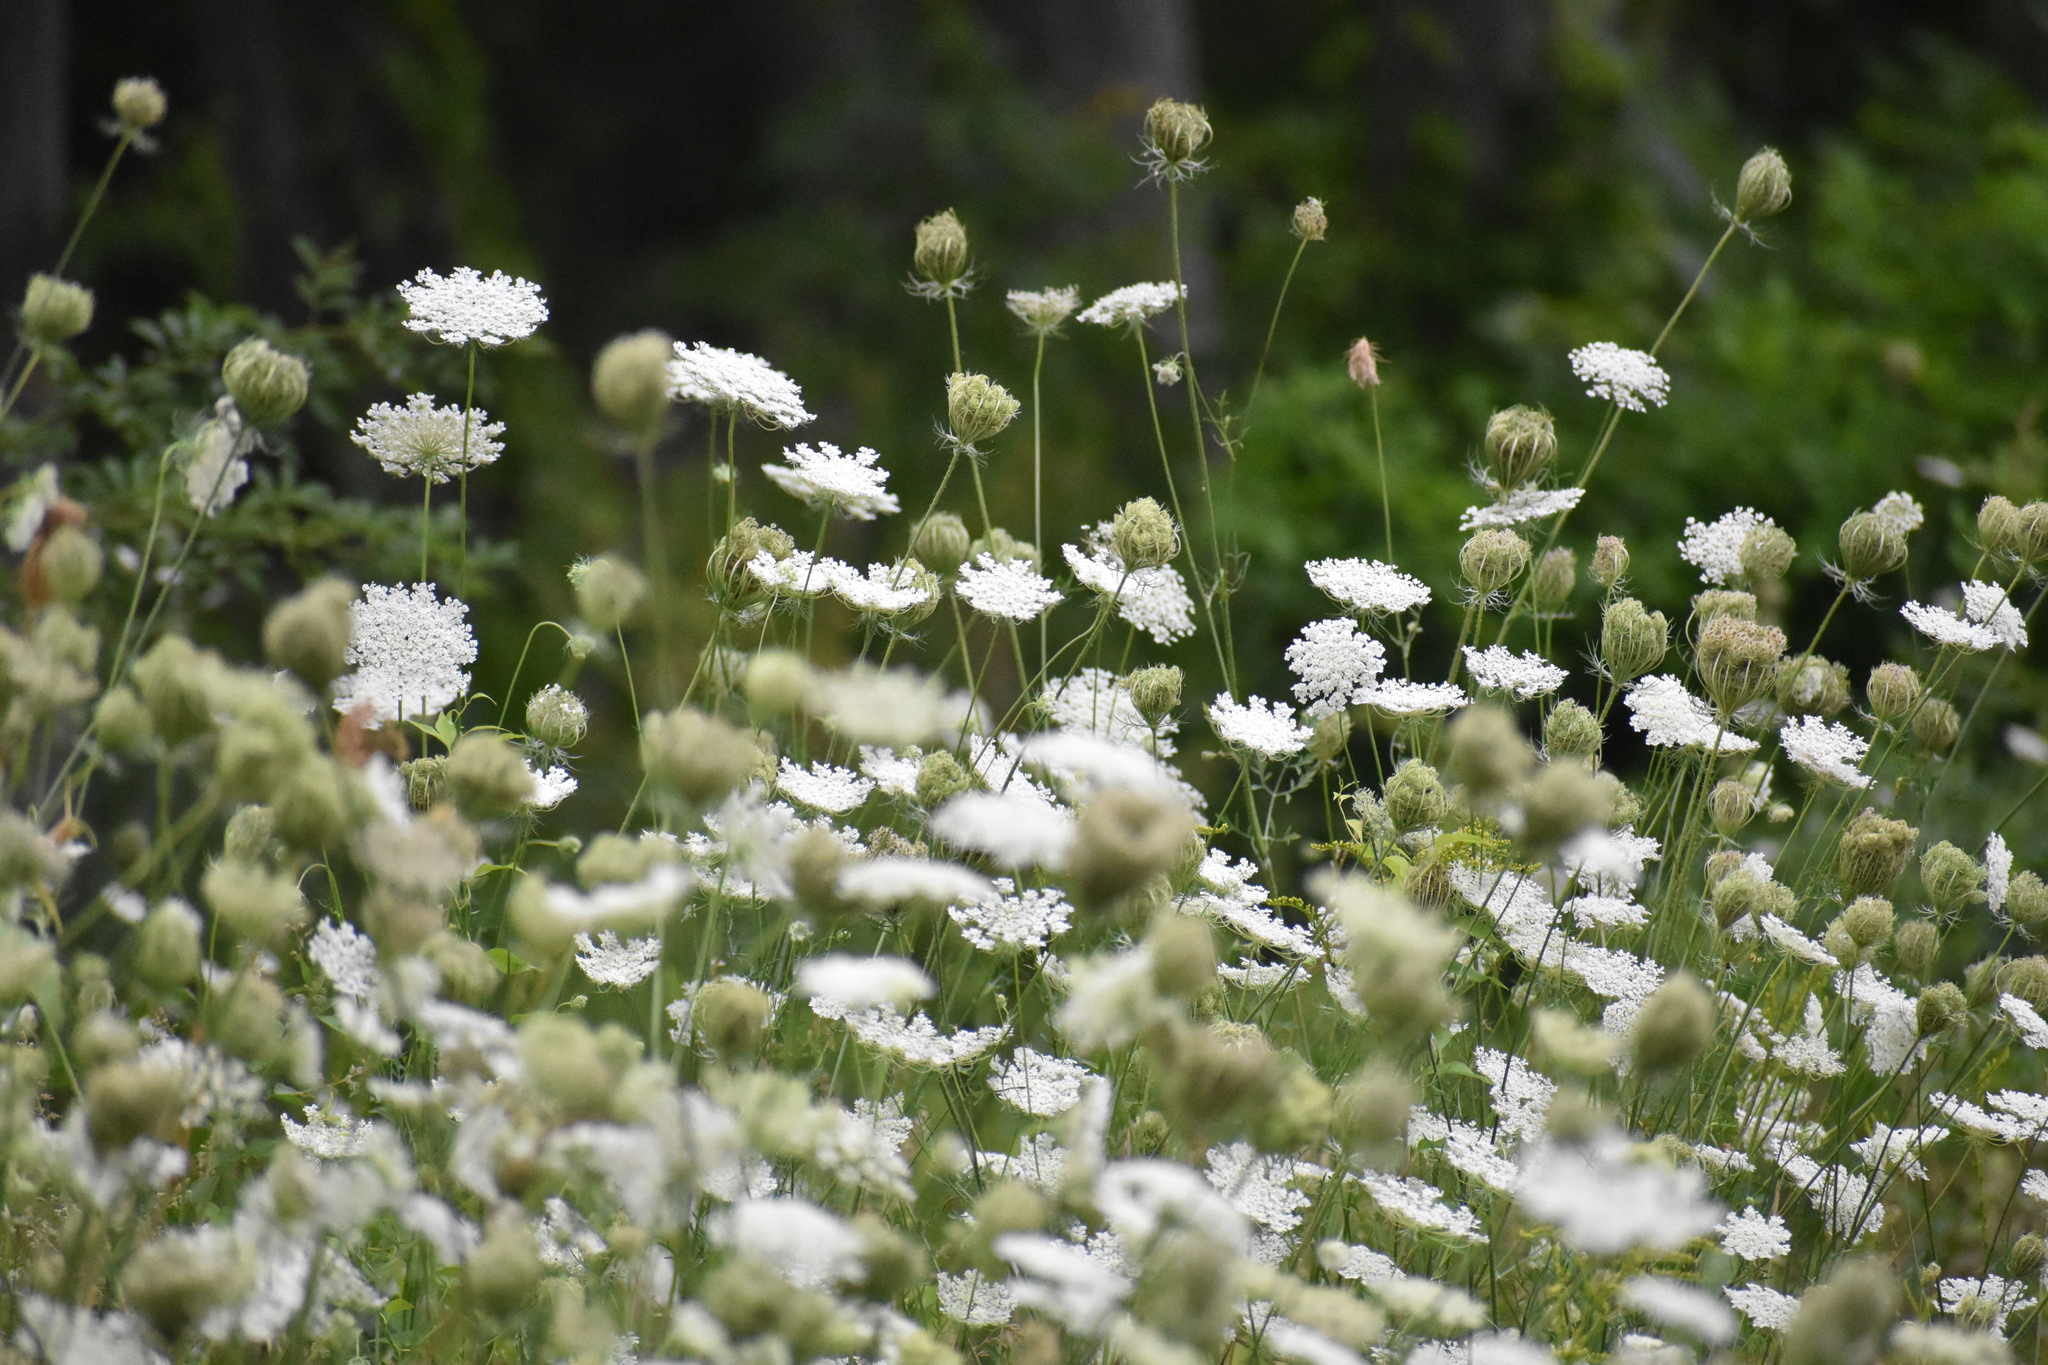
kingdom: Plantae
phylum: Tracheophyta
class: Magnoliopsida
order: Apiales
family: Apiaceae
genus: Daucus
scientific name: Daucus carota
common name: Wild carrot
